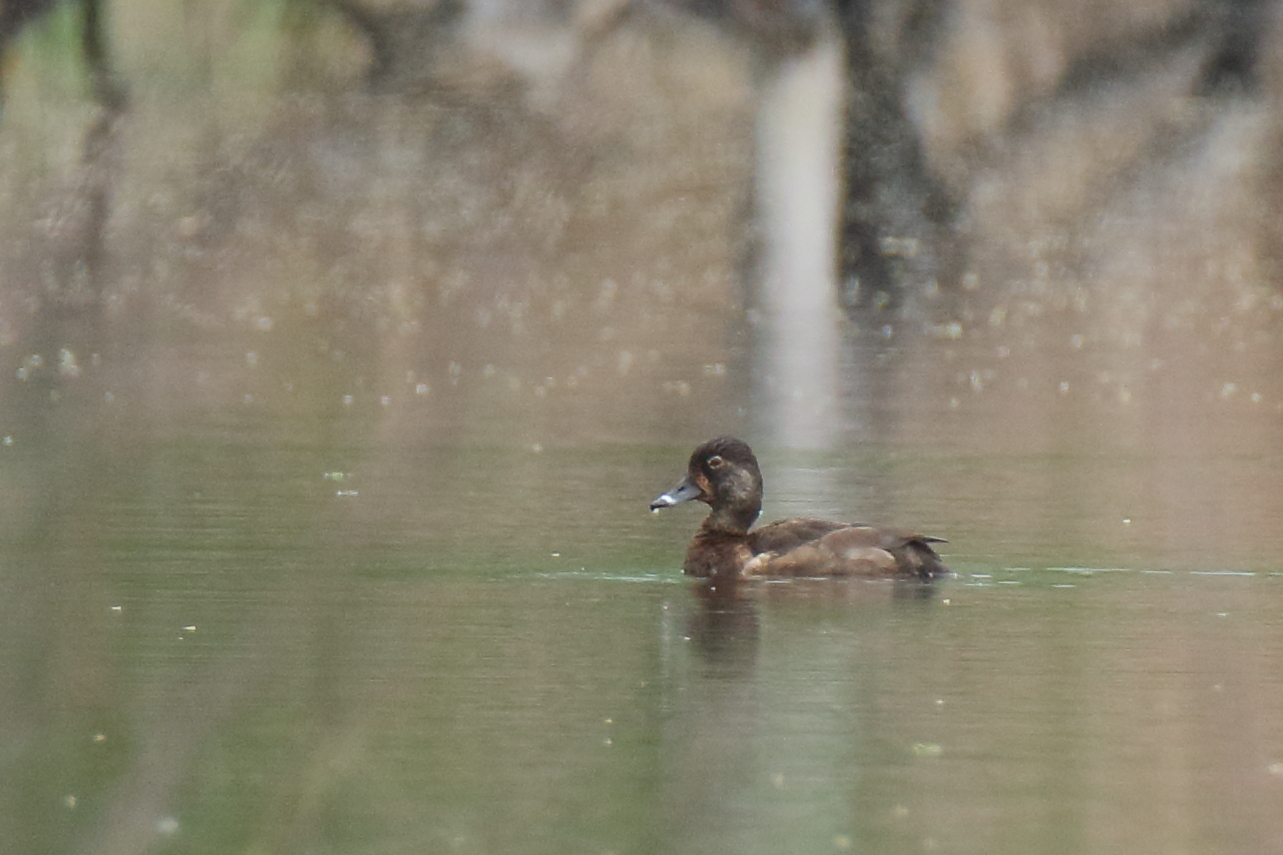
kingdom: Animalia
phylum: Chordata
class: Aves
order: Anseriformes
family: Anatidae
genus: Aythya
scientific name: Aythya collaris
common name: Ring-necked duck
